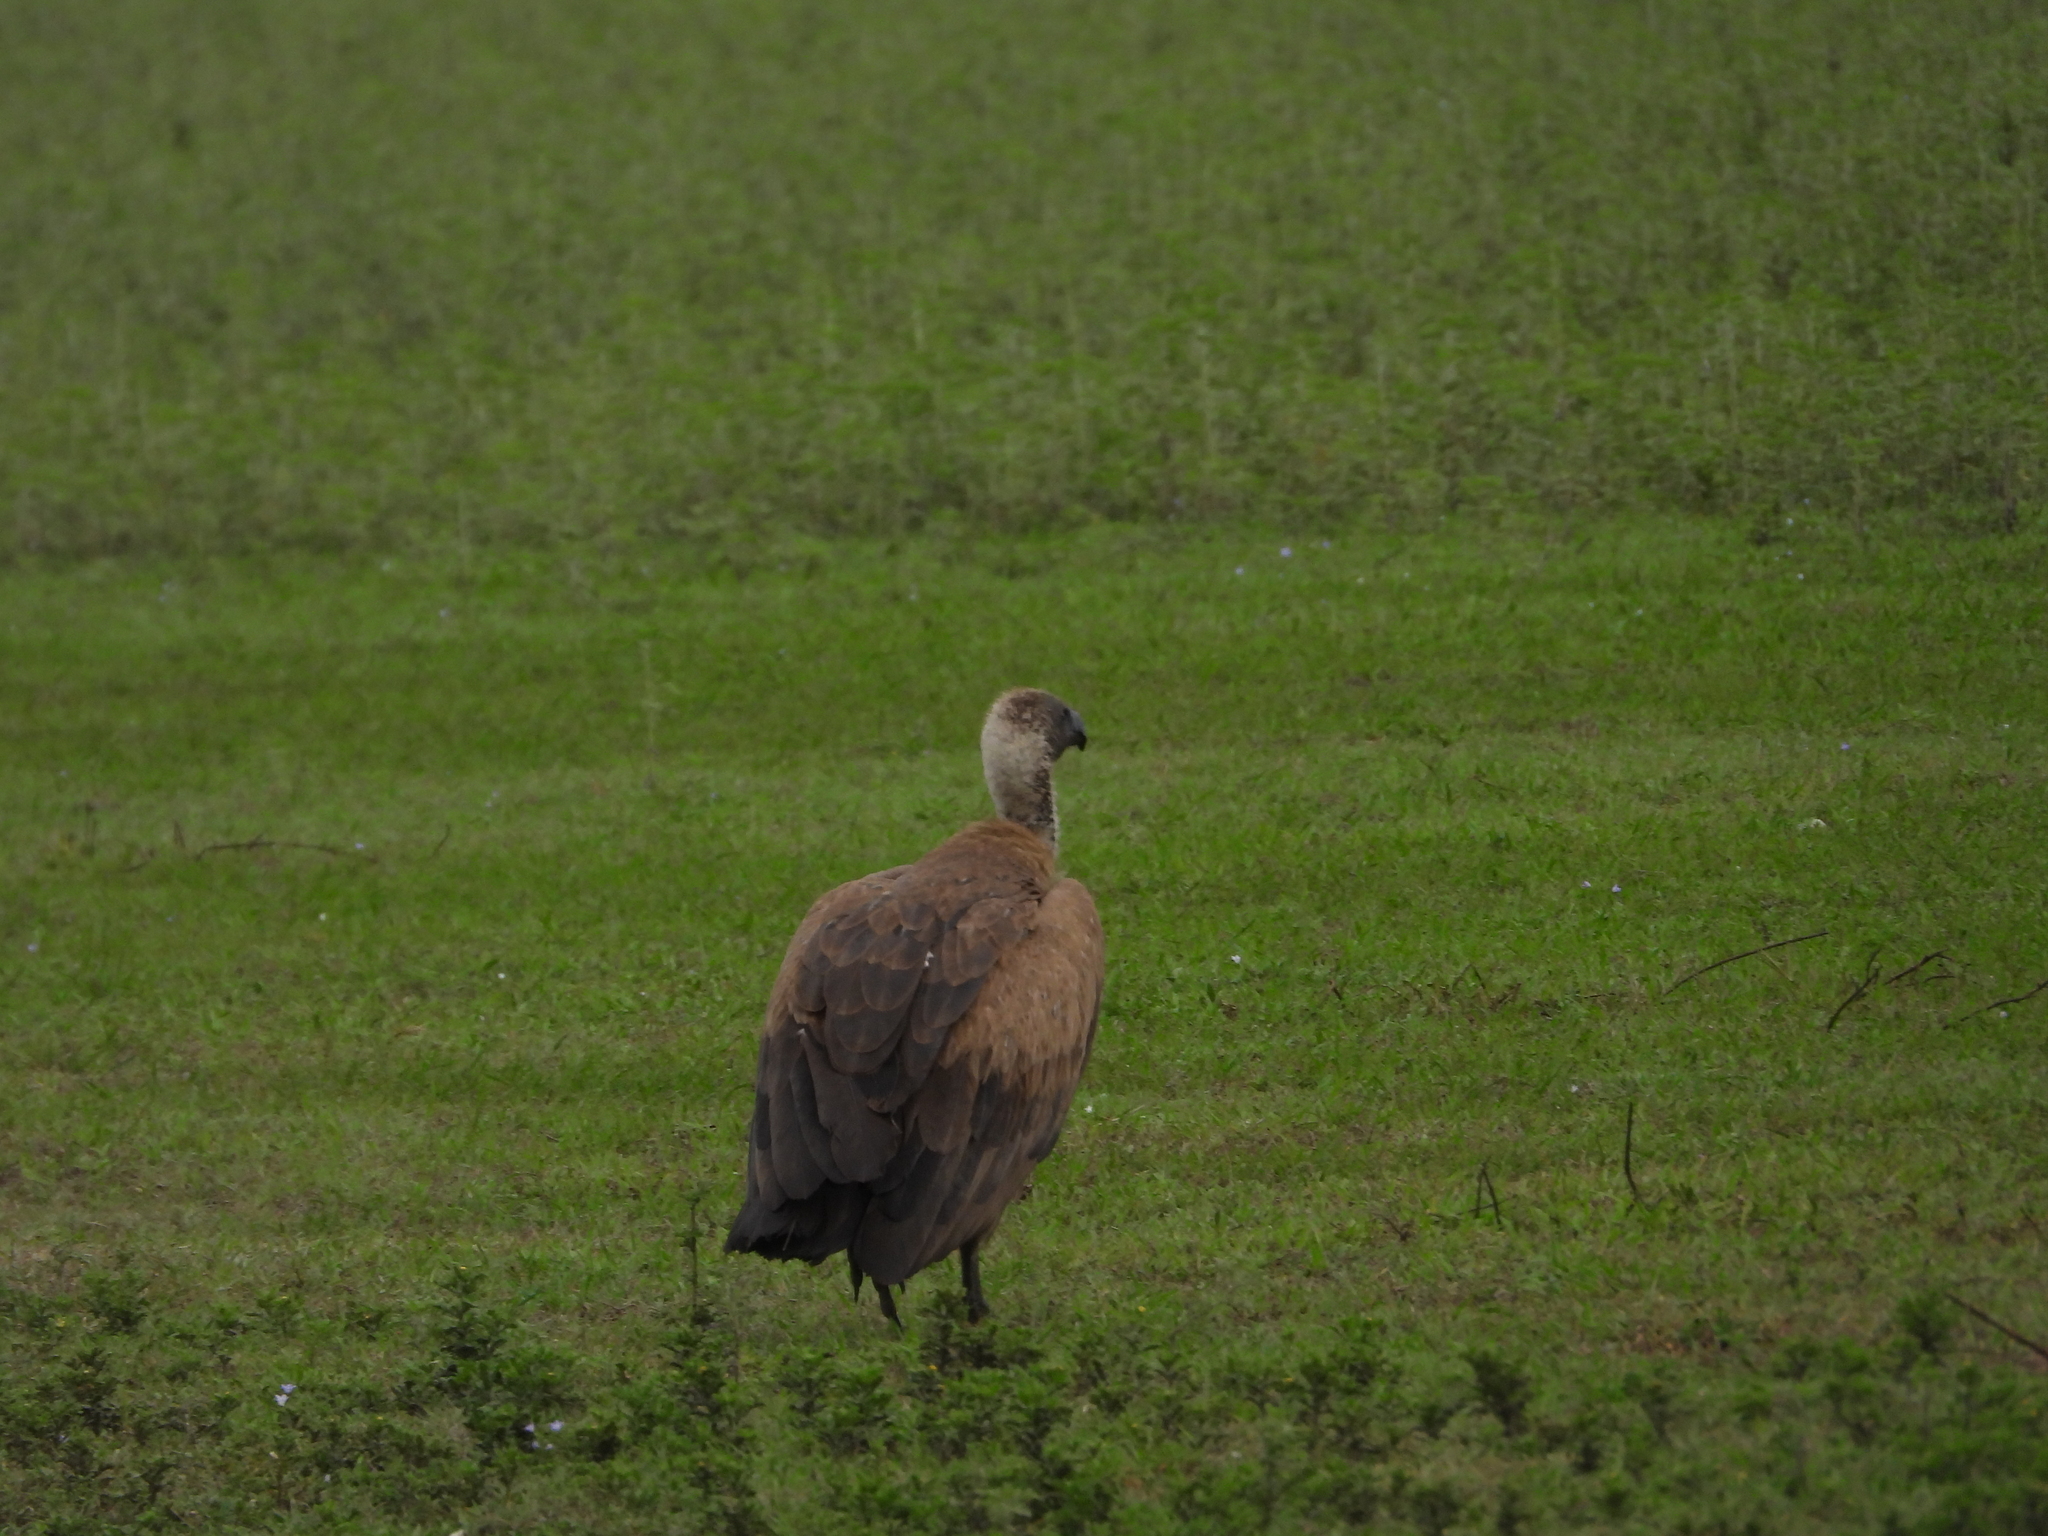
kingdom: Animalia
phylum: Chordata
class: Aves
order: Accipitriformes
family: Accipitridae
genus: Gyps
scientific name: Gyps africanus
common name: White-backed vulture
